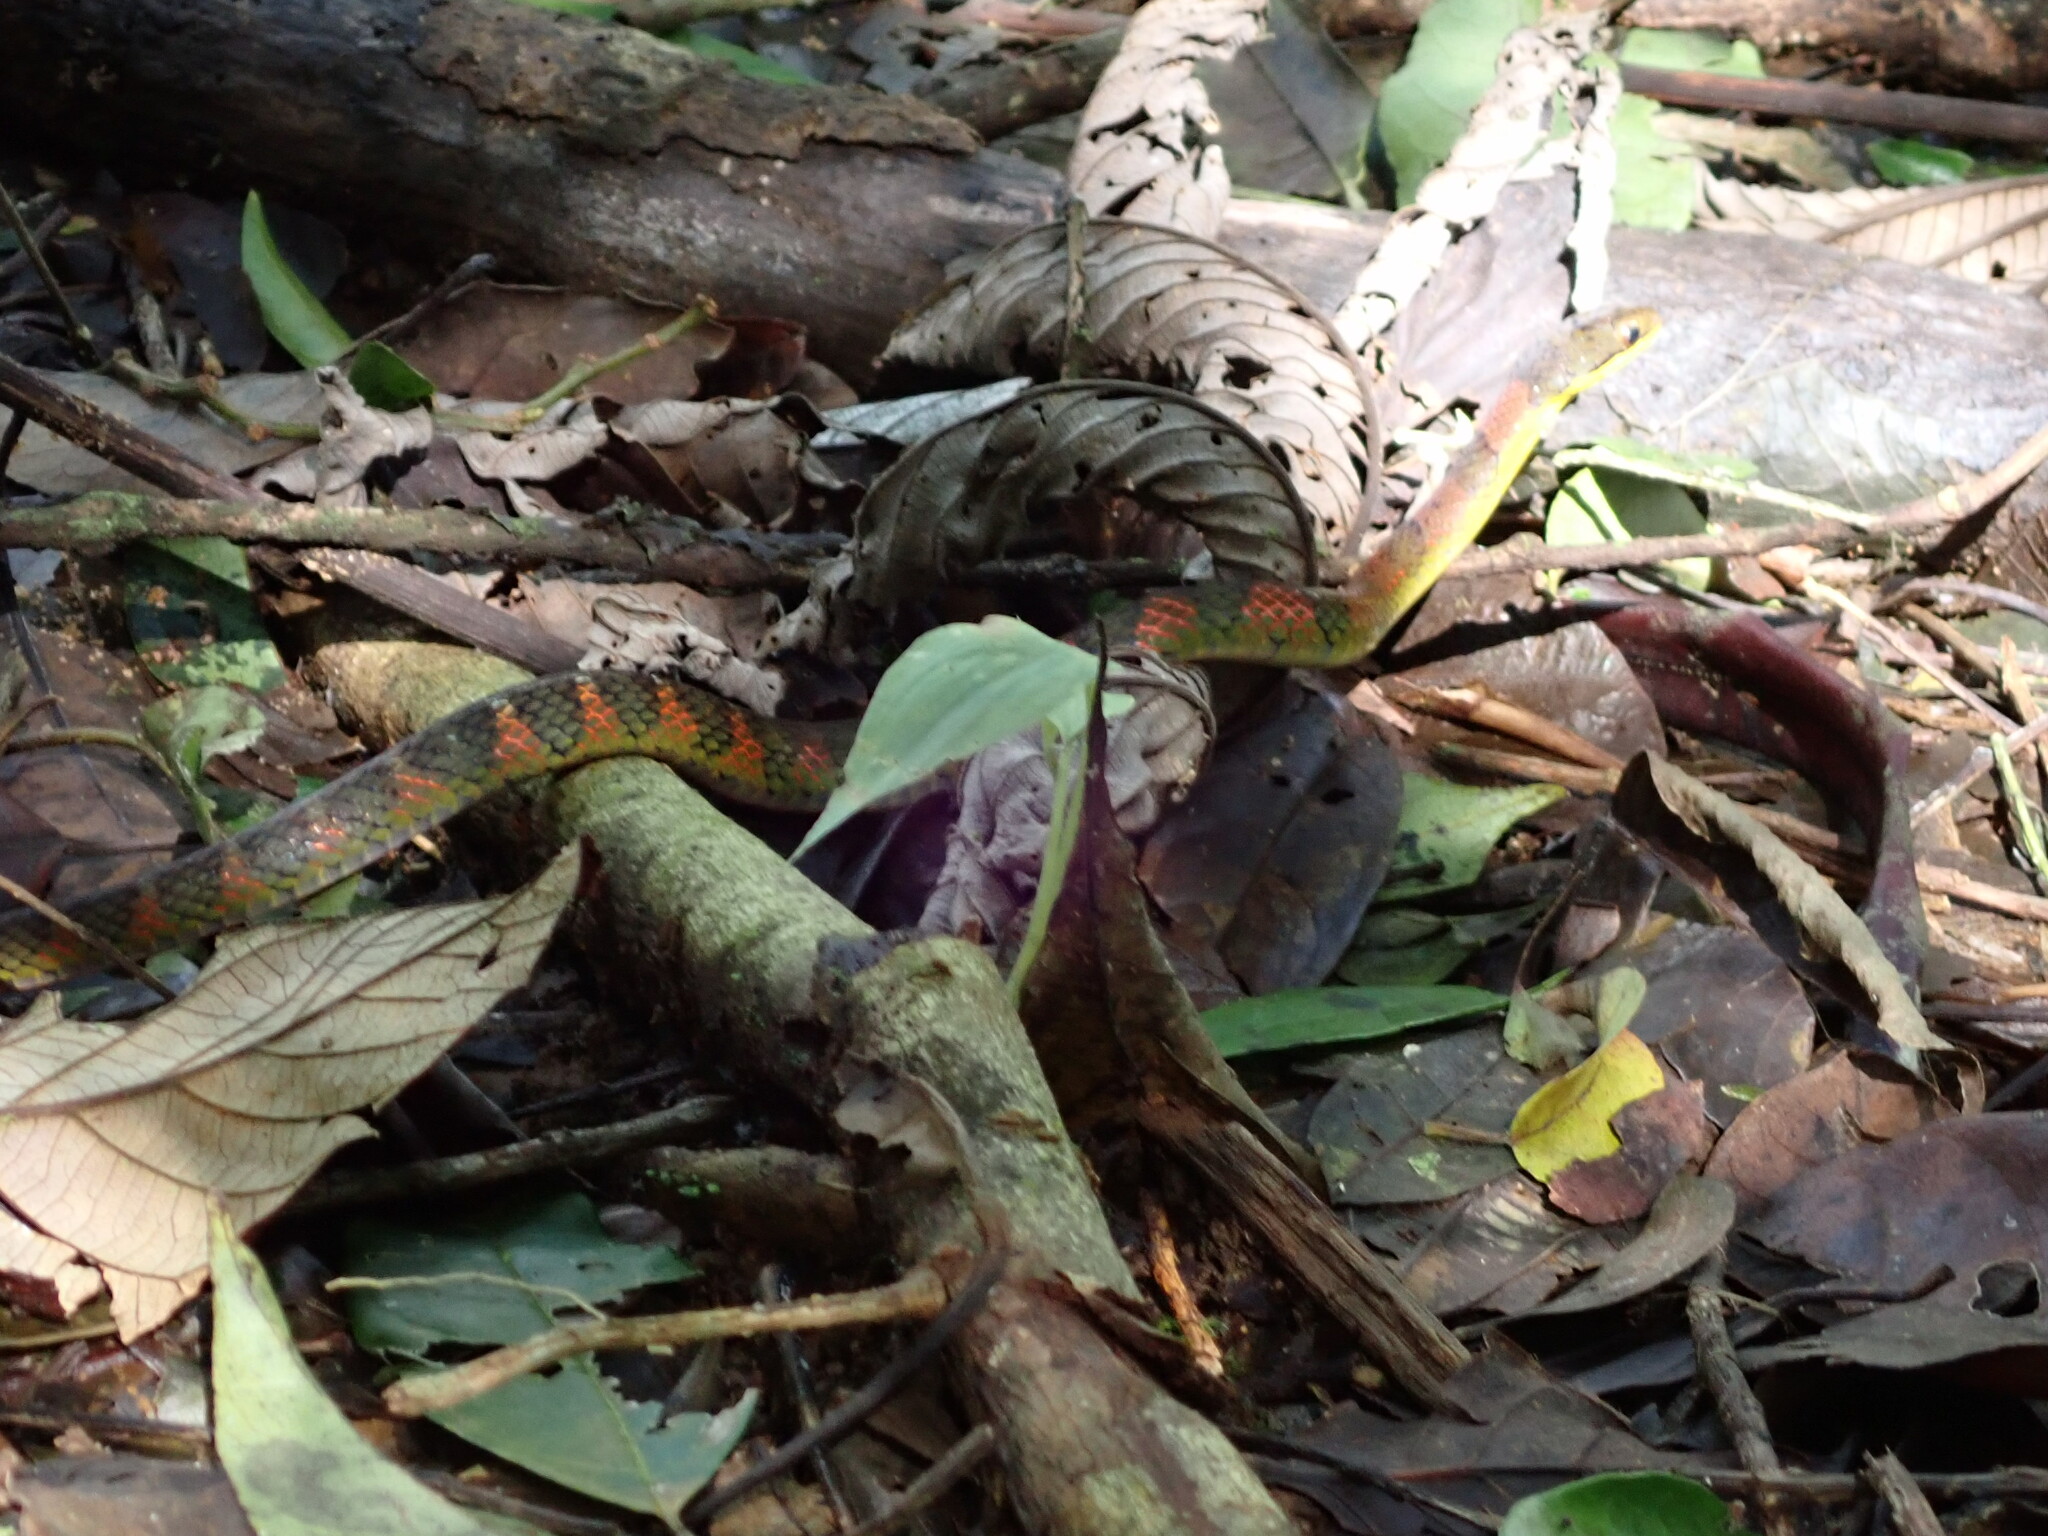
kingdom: Animalia
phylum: Chordata
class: Squamata
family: Colubridae
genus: Erythrolamprus
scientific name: Erythrolamprus epinephalus
